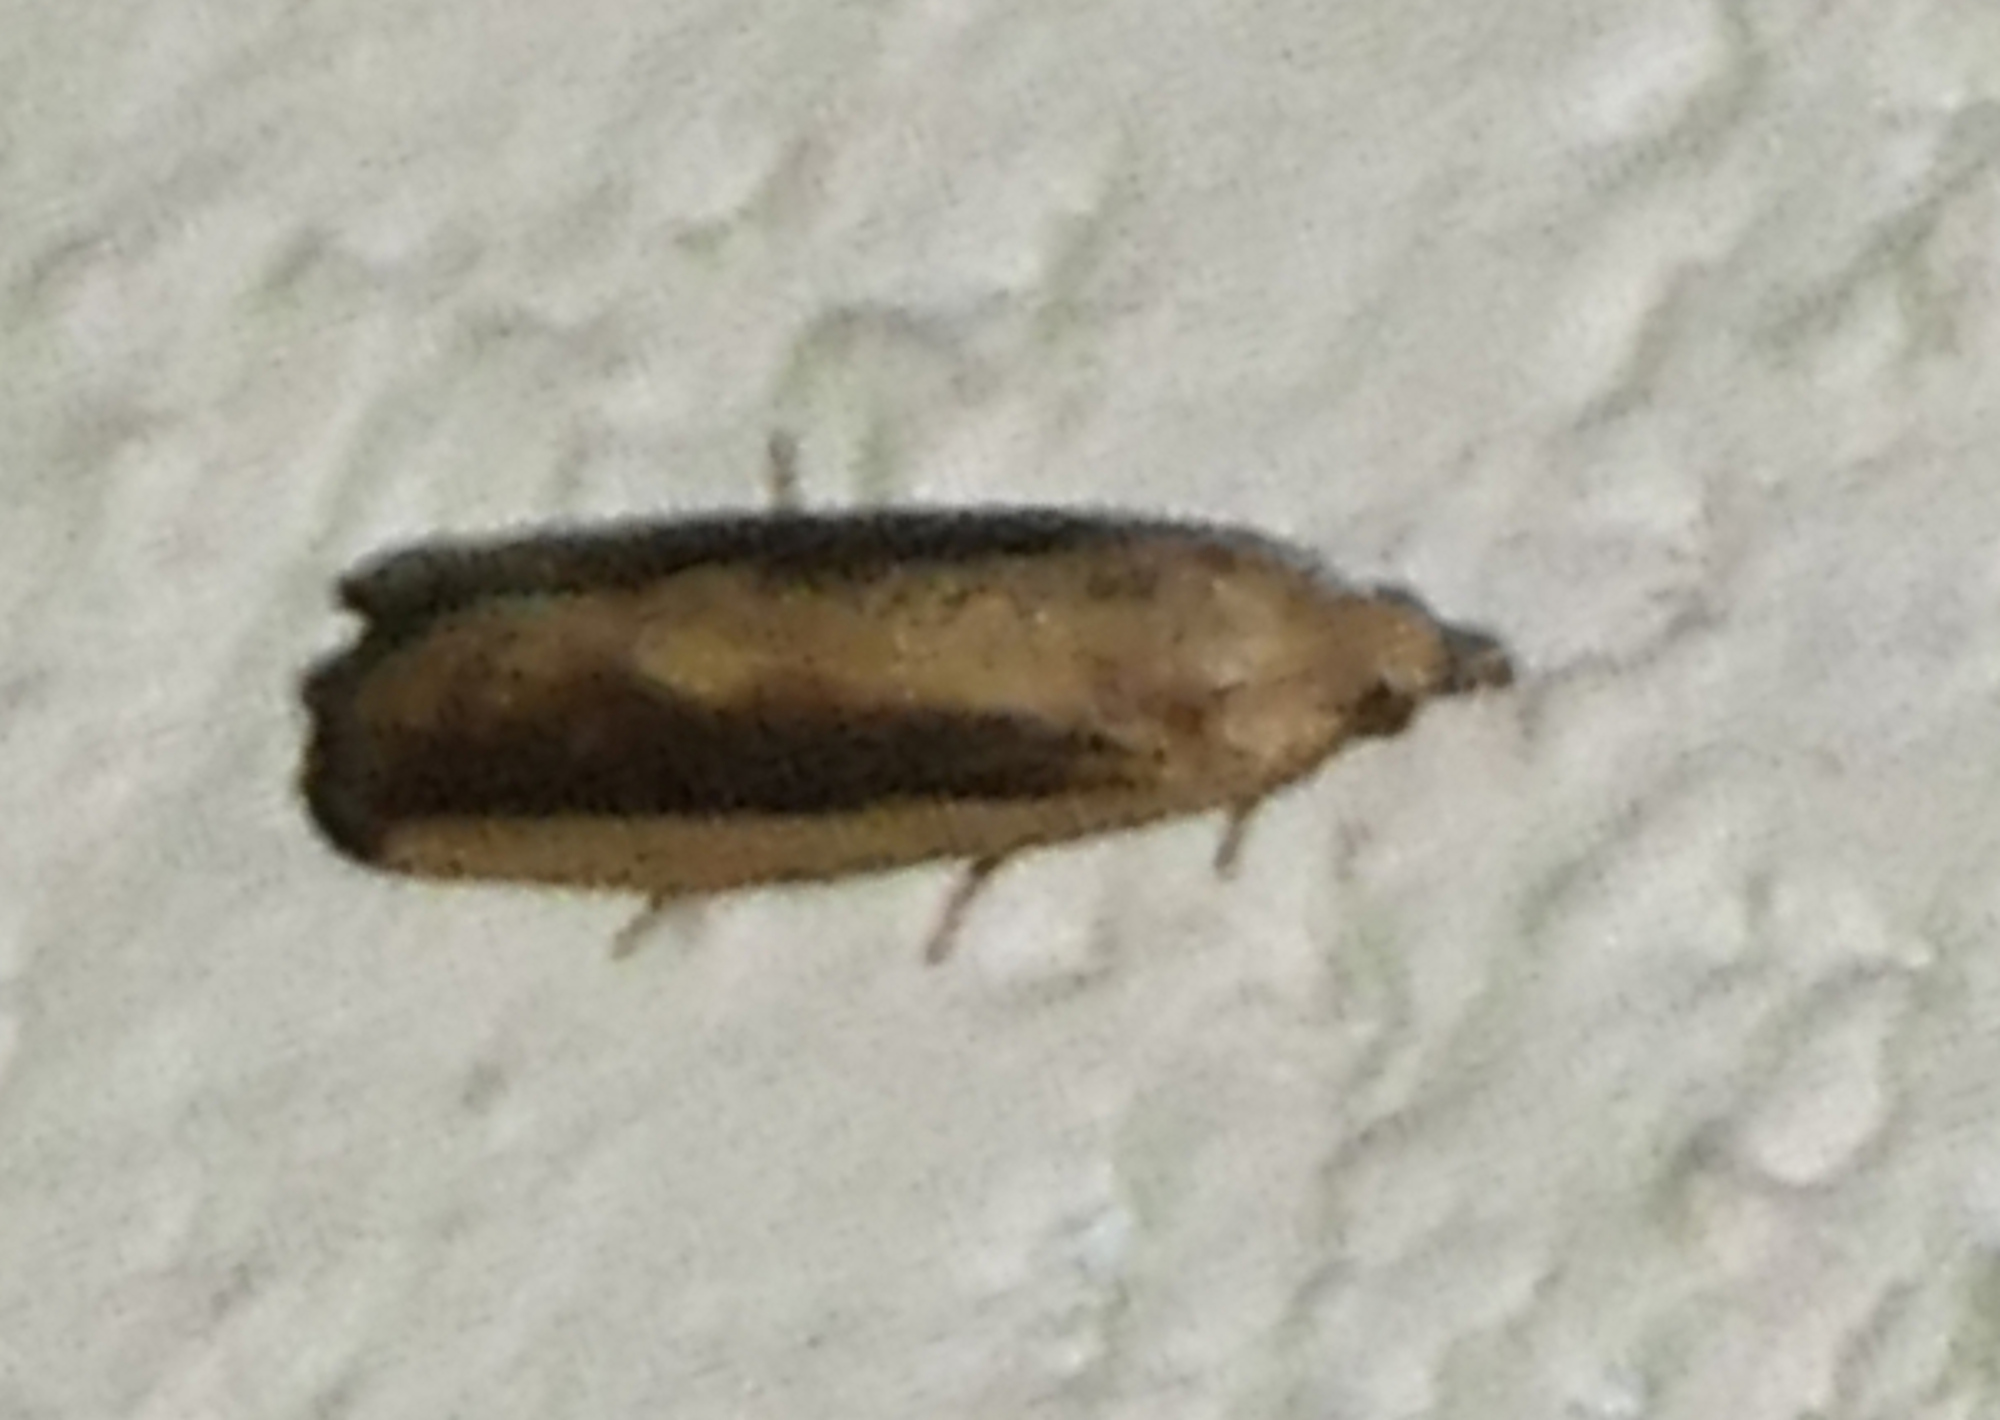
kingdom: Animalia
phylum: Arthropoda
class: Insecta
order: Lepidoptera
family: Tortricidae
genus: Bactra
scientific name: Bactra priapeia
